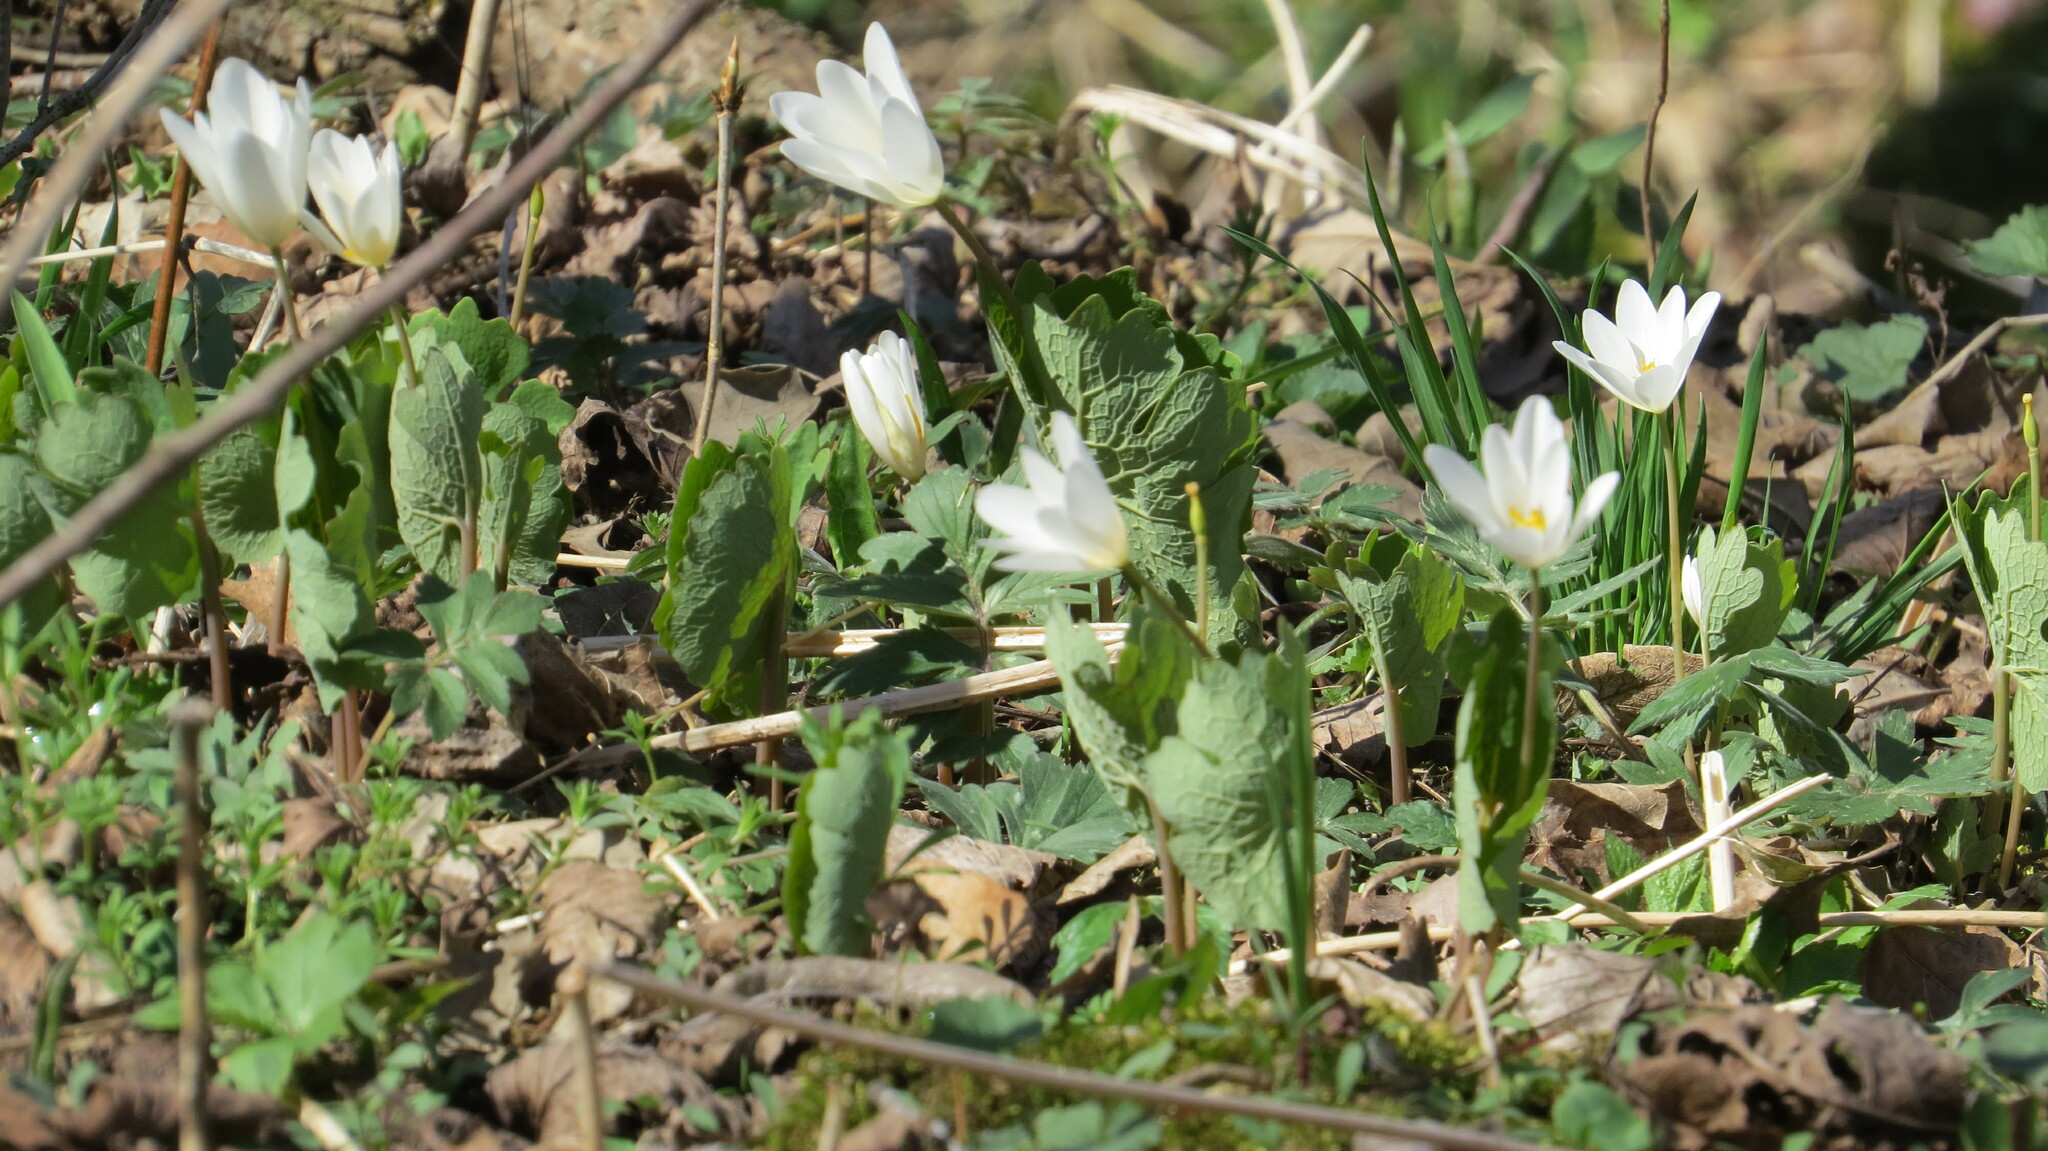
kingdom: Plantae
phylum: Tracheophyta
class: Magnoliopsida
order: Ranunculales
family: Papaveraceae
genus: Sanguinaria
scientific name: Sanguinaria canadensis
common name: Bloodroot
